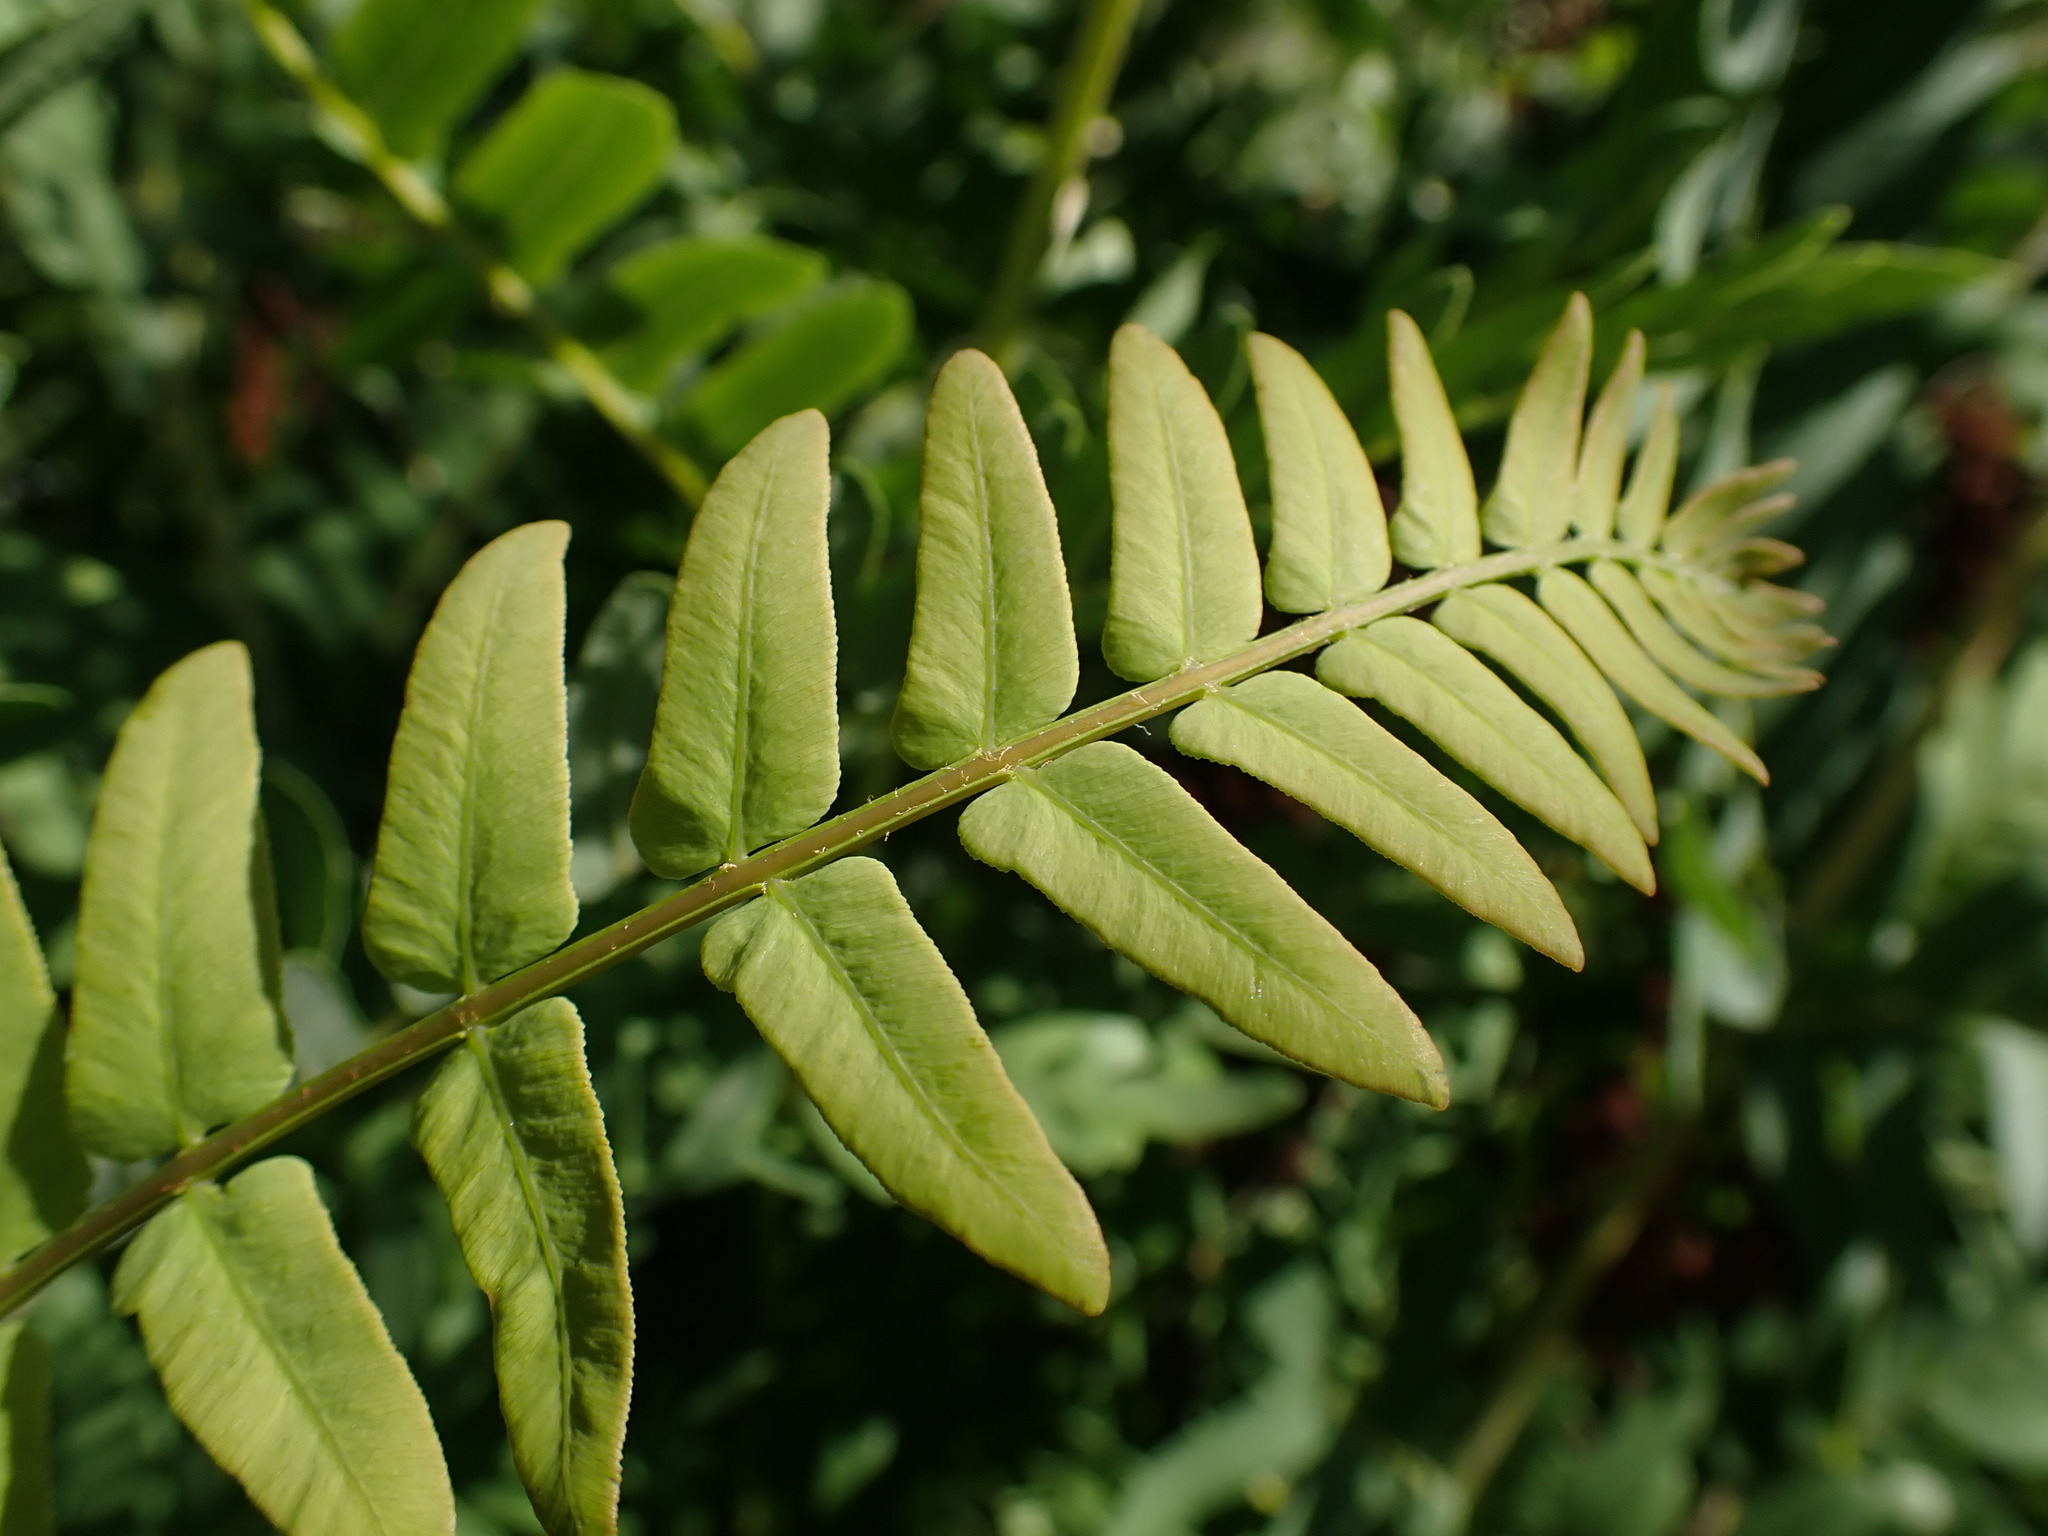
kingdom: Plantae
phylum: Tracheophyta
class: Polypodiopsida
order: Osmundales
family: Osmundaceae
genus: Osmunda
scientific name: Osmunda regalis
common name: Royal fern
